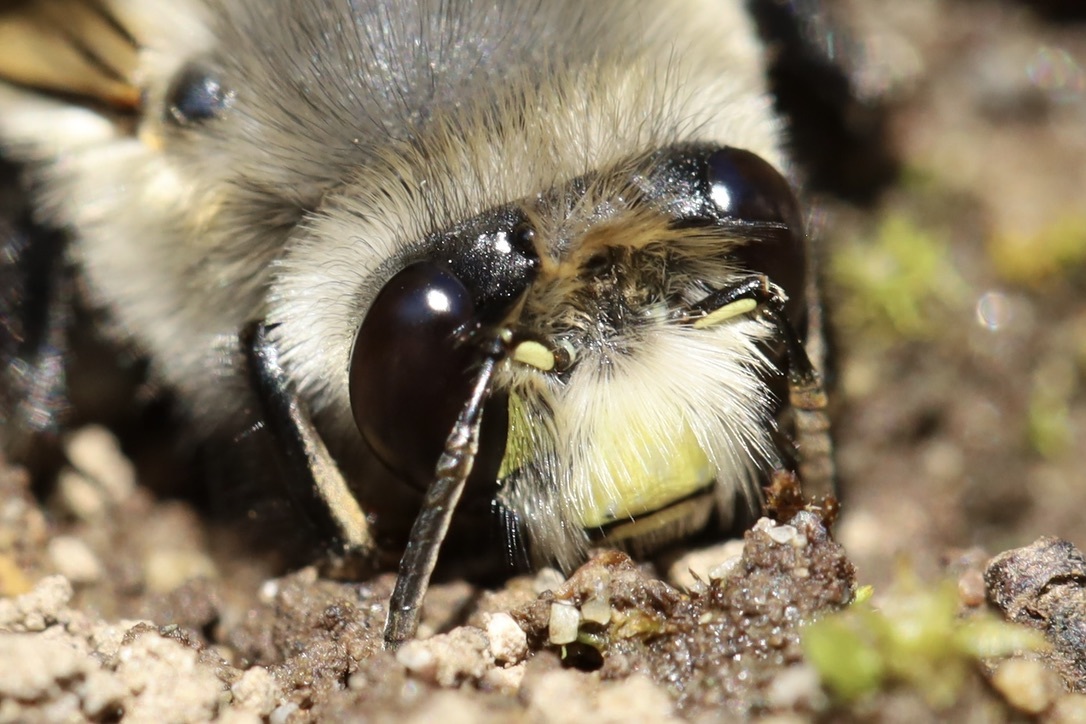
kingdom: Animalia
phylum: Arthropoda
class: Insecta
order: Hymenoptera
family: Apidae
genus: Anthophora
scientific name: Anthophora pacifica
